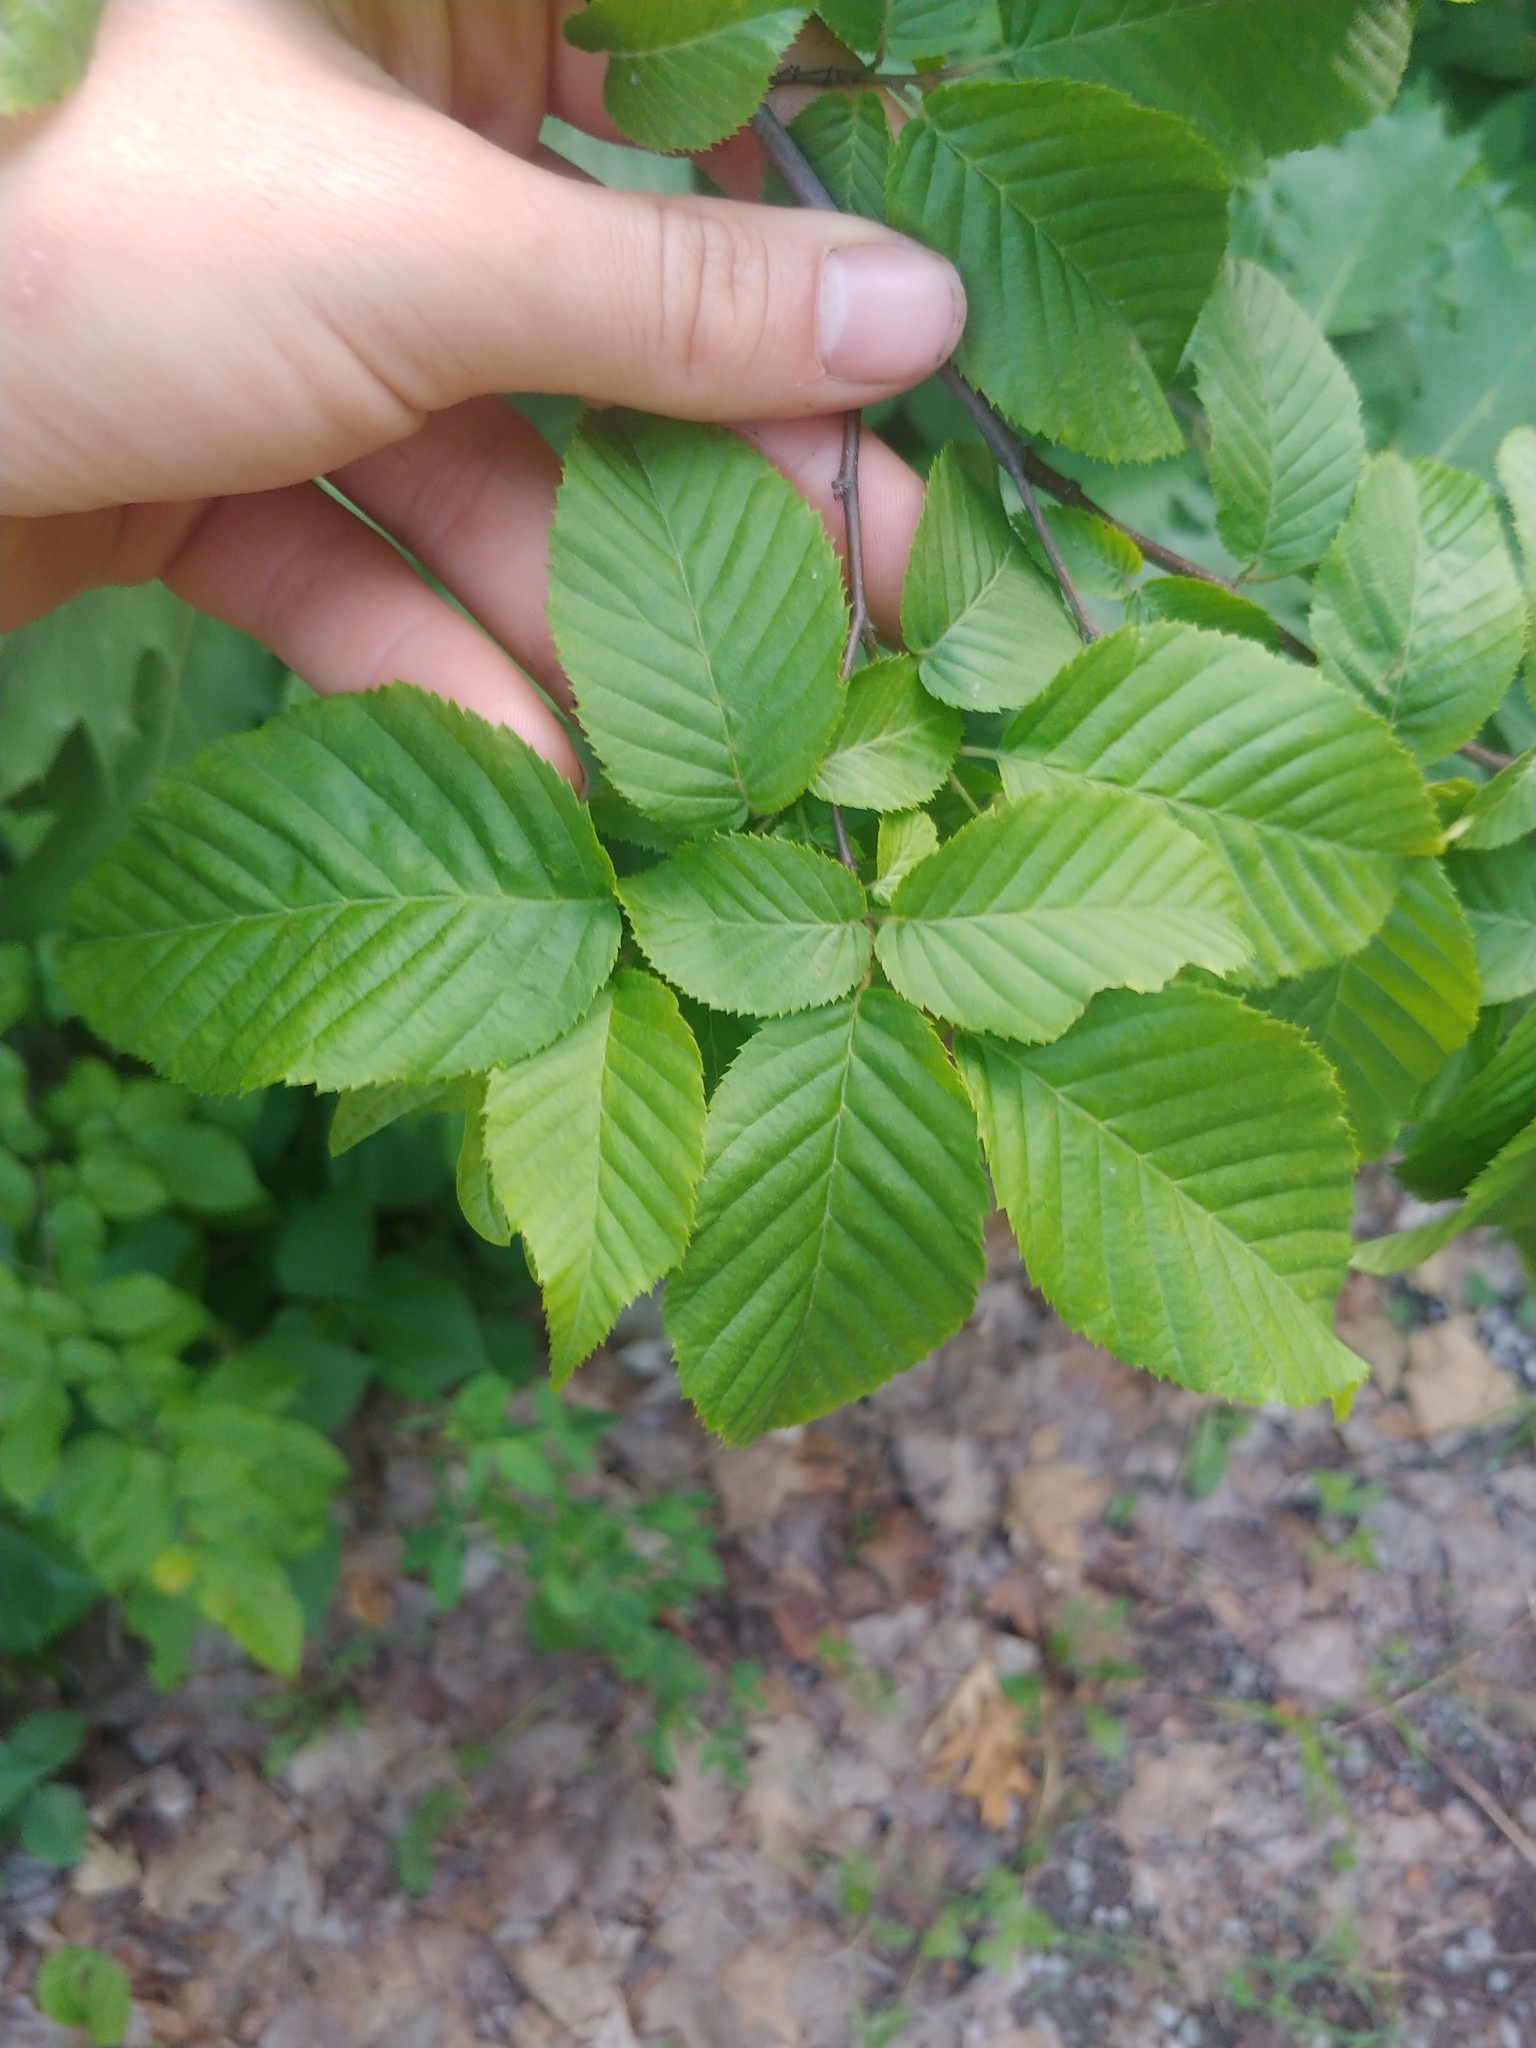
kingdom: Plantae
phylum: Tracheophyta
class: Magnoliopsida
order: Fagales
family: Betulaceae
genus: Carpinus
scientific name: Carpinus caroliniana
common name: American hornbeam
